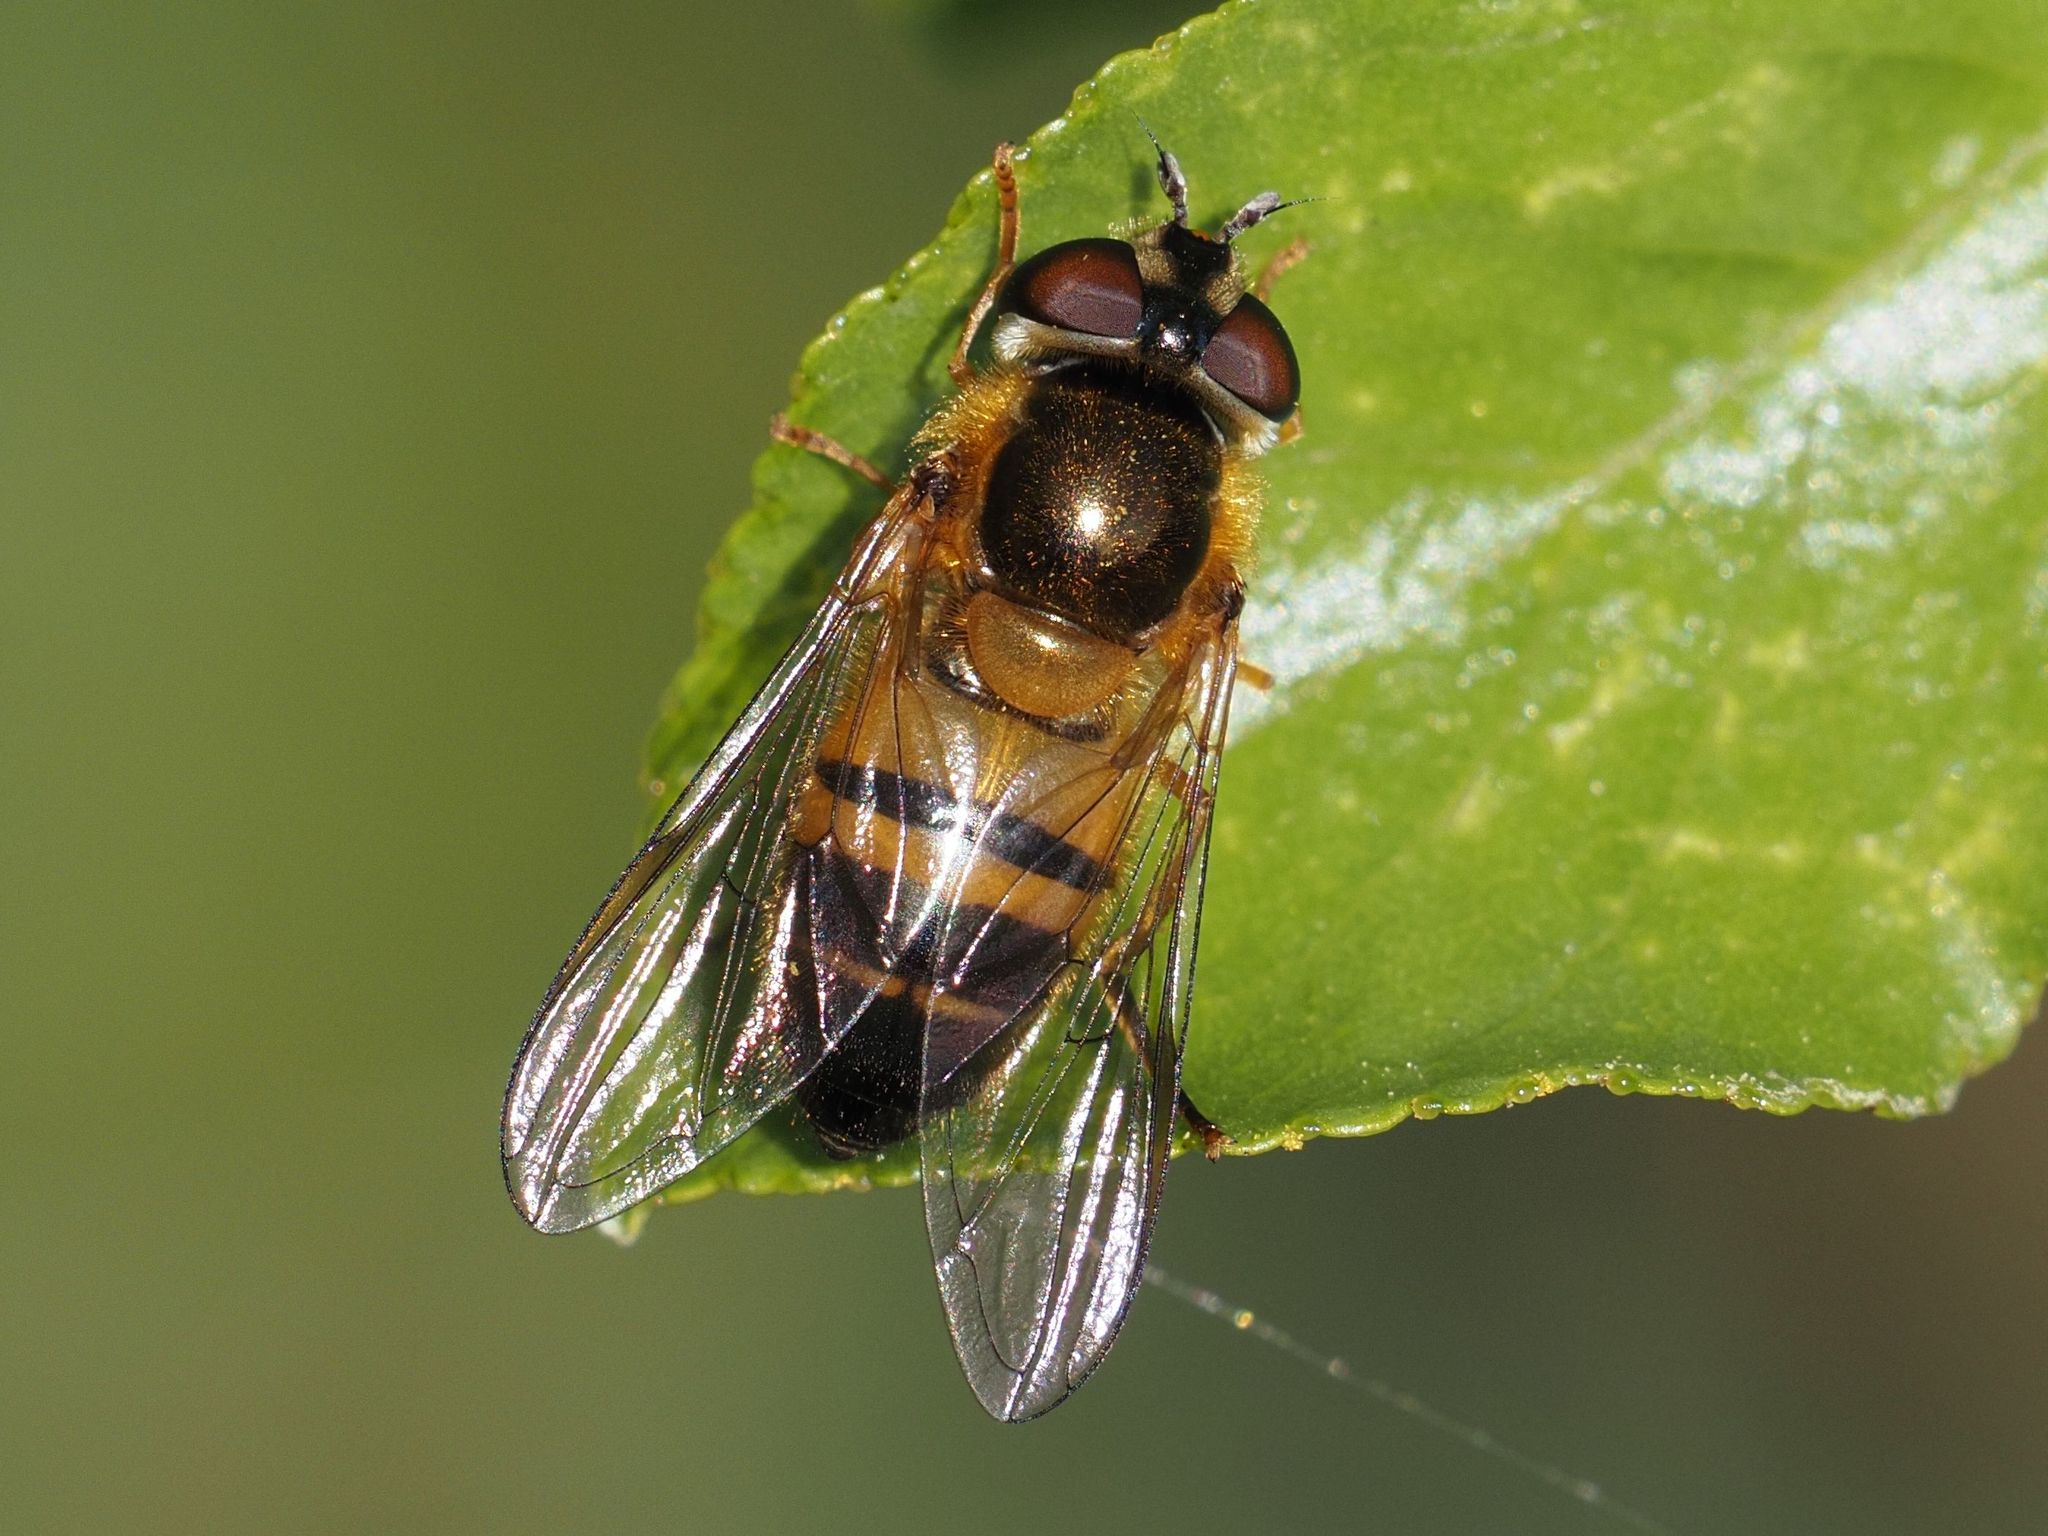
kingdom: Animalia
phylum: Arthropoda
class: Insecta
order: Diptera
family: Syrphidae
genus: Epistrophe
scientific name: Epistrophe eligans
